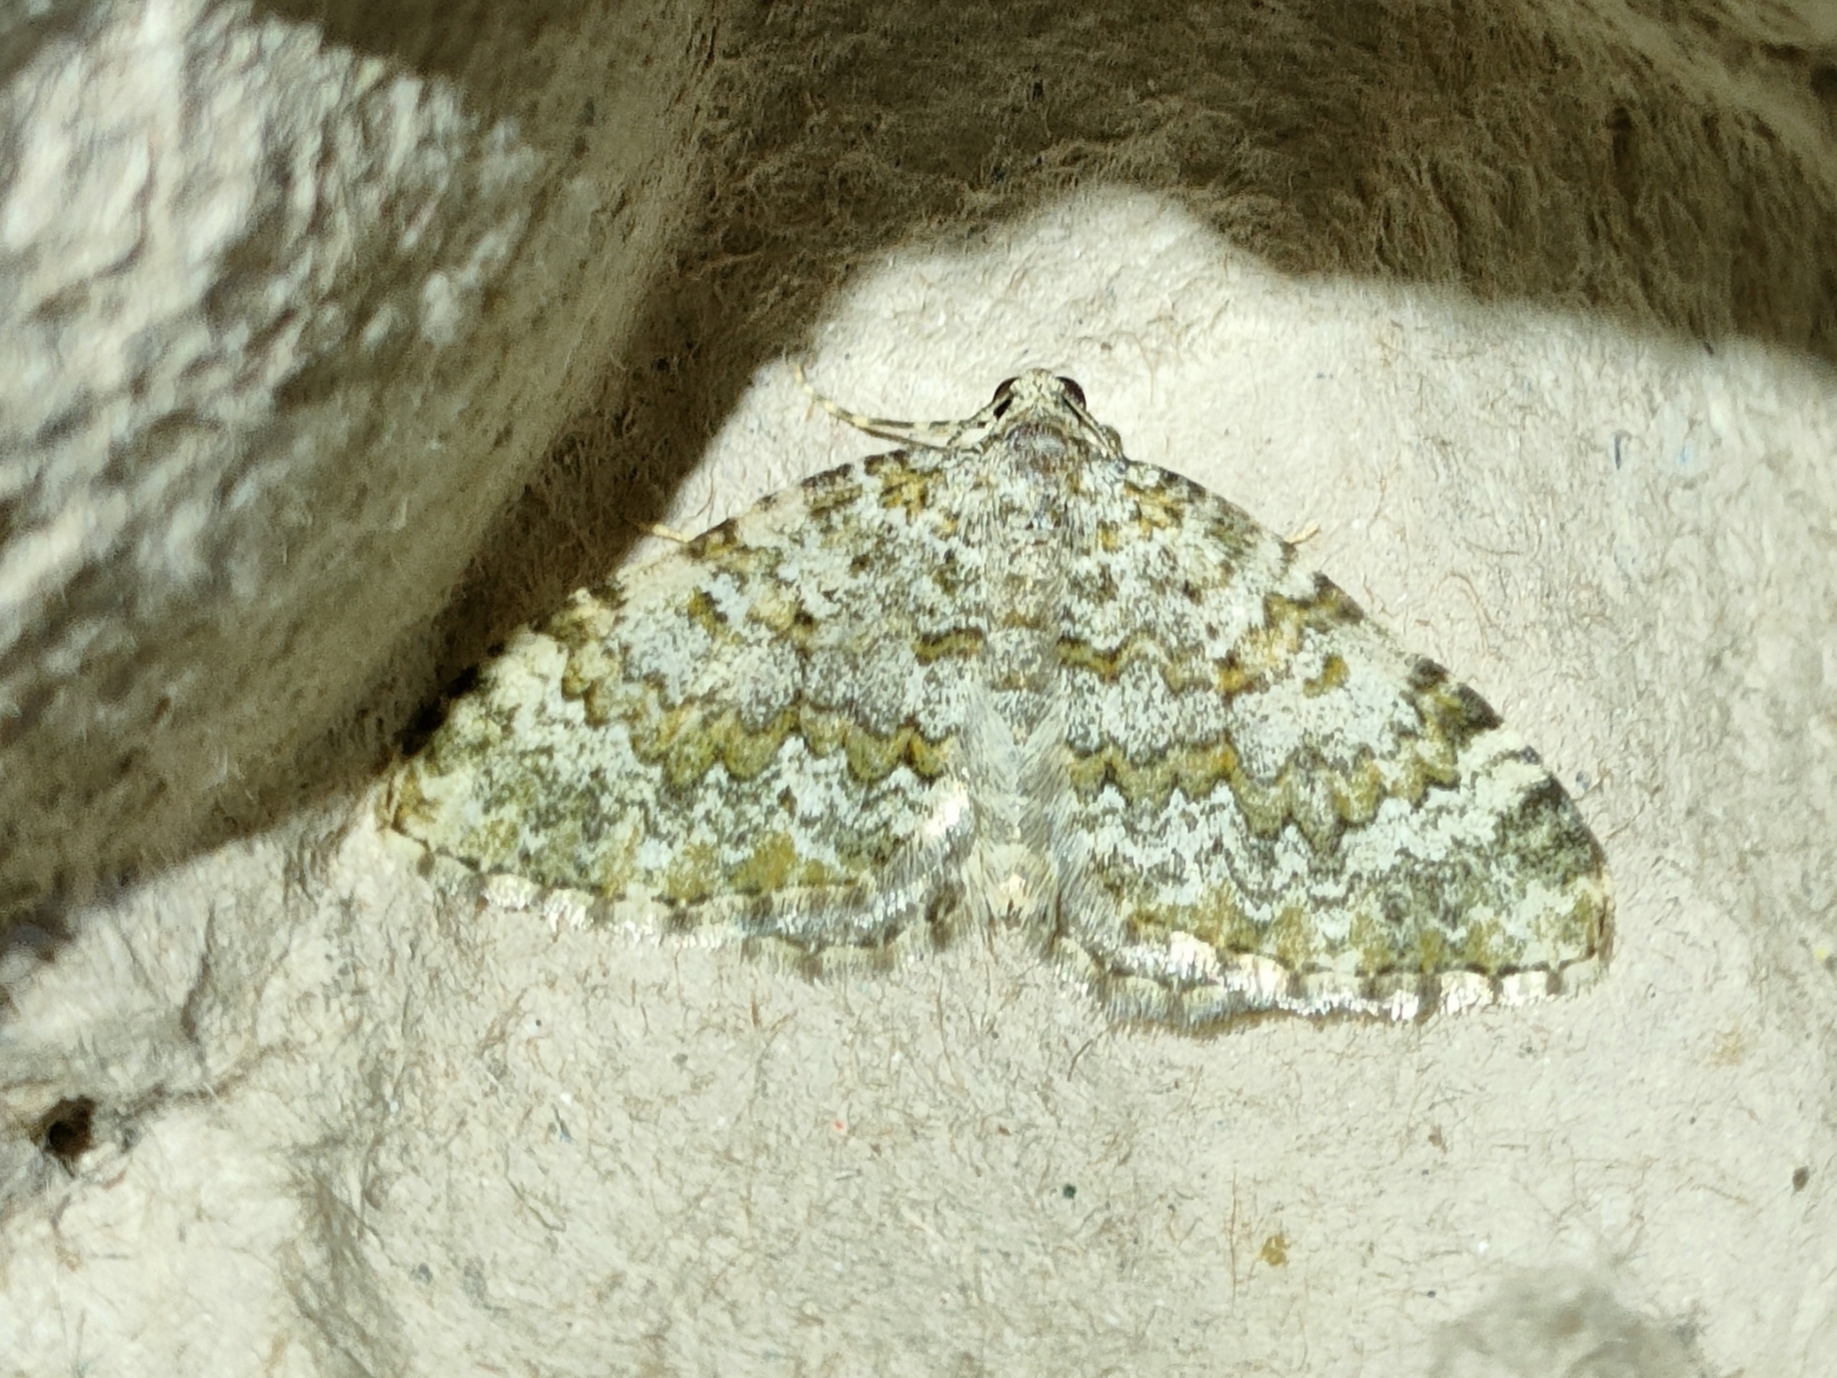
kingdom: Animalia
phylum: Arthropoda
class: Insecta
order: Lepidoptera
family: Geometridae
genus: Euphyia
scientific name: Euphyia frustata
